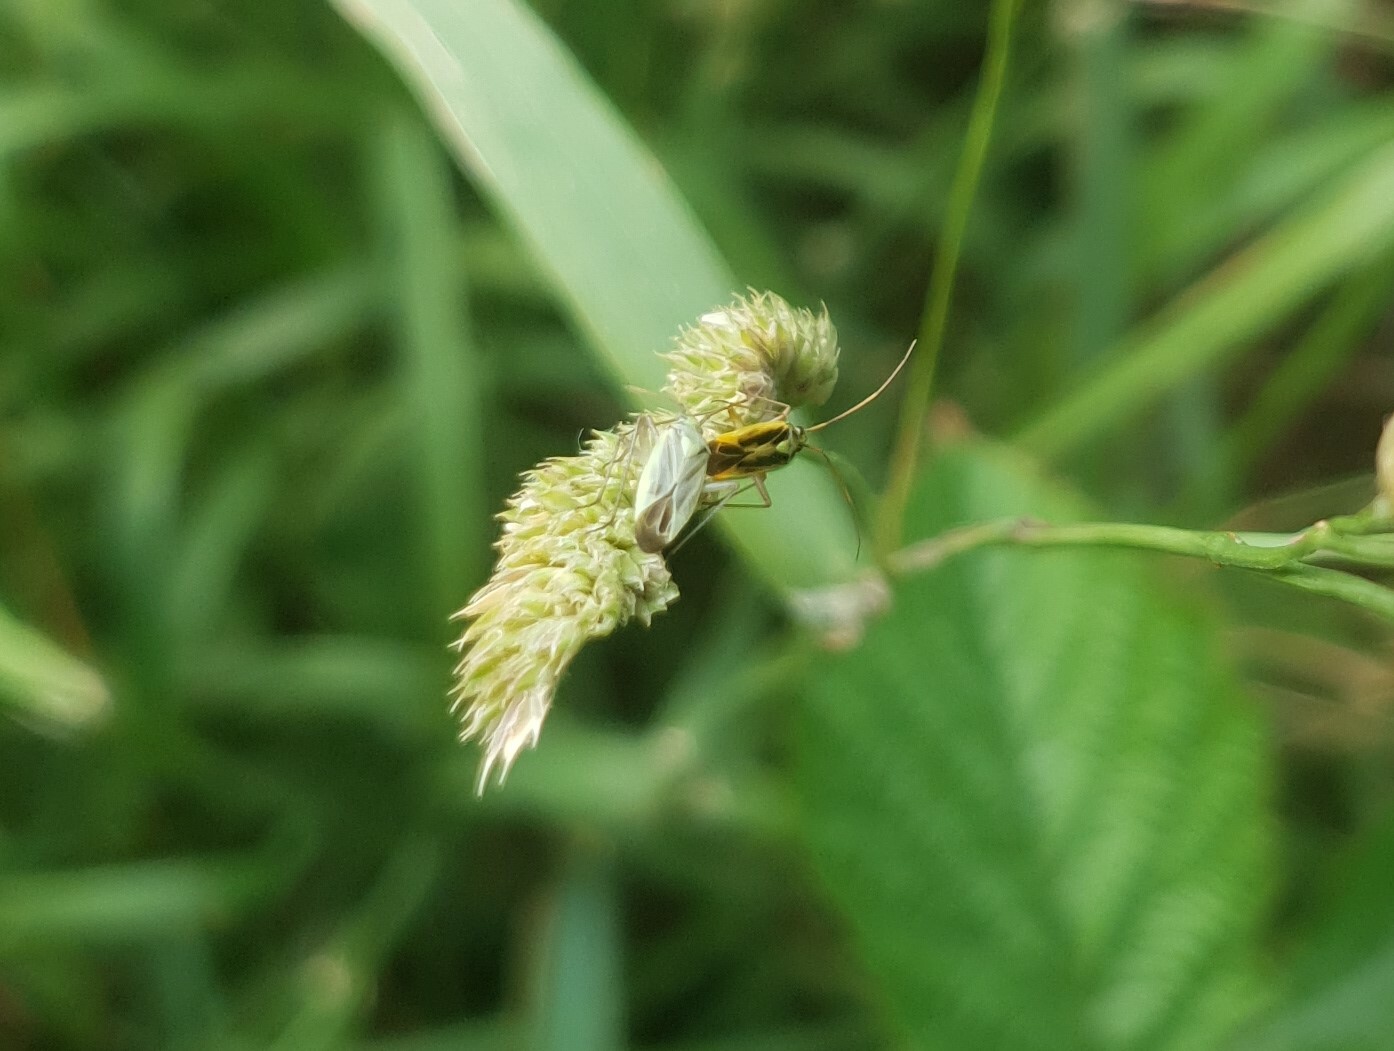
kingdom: Animalia
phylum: Arthropoda
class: Insecta
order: Hemiptera
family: Miridae
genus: Stenotus
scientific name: Stenotus binotatus
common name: Plant bug
